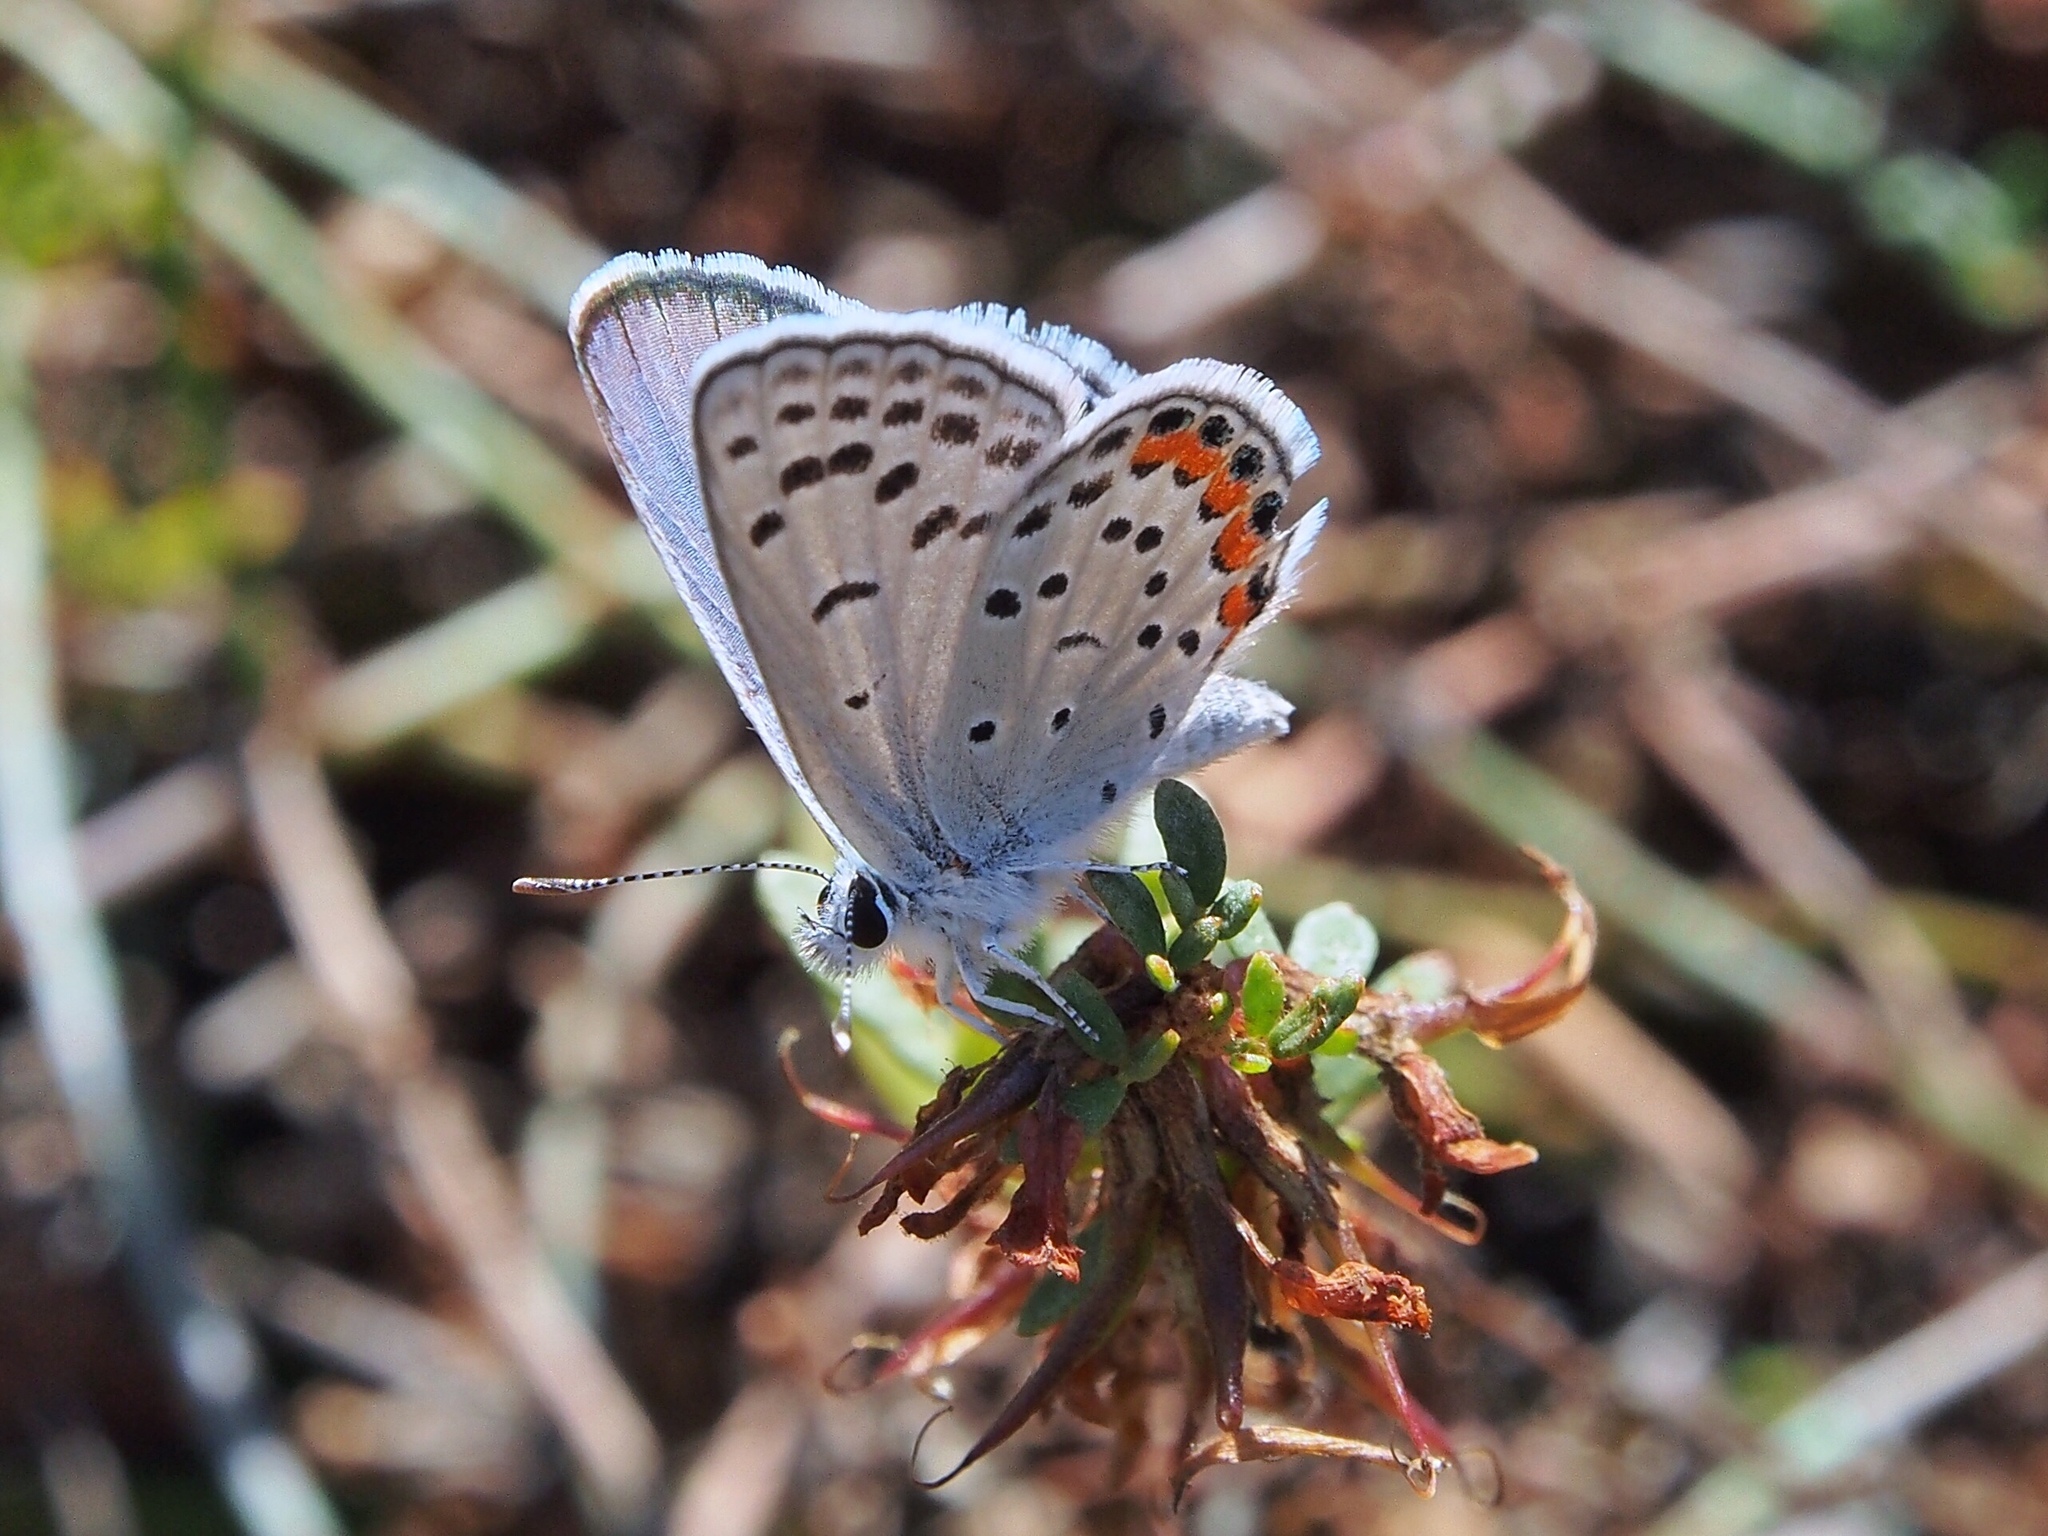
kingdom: Animalia
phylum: Arthropoda
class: Insecta
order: Lepidoptera
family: Lycaenidae
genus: Icaricia
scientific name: Icaricia acmon
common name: Acmon blue
